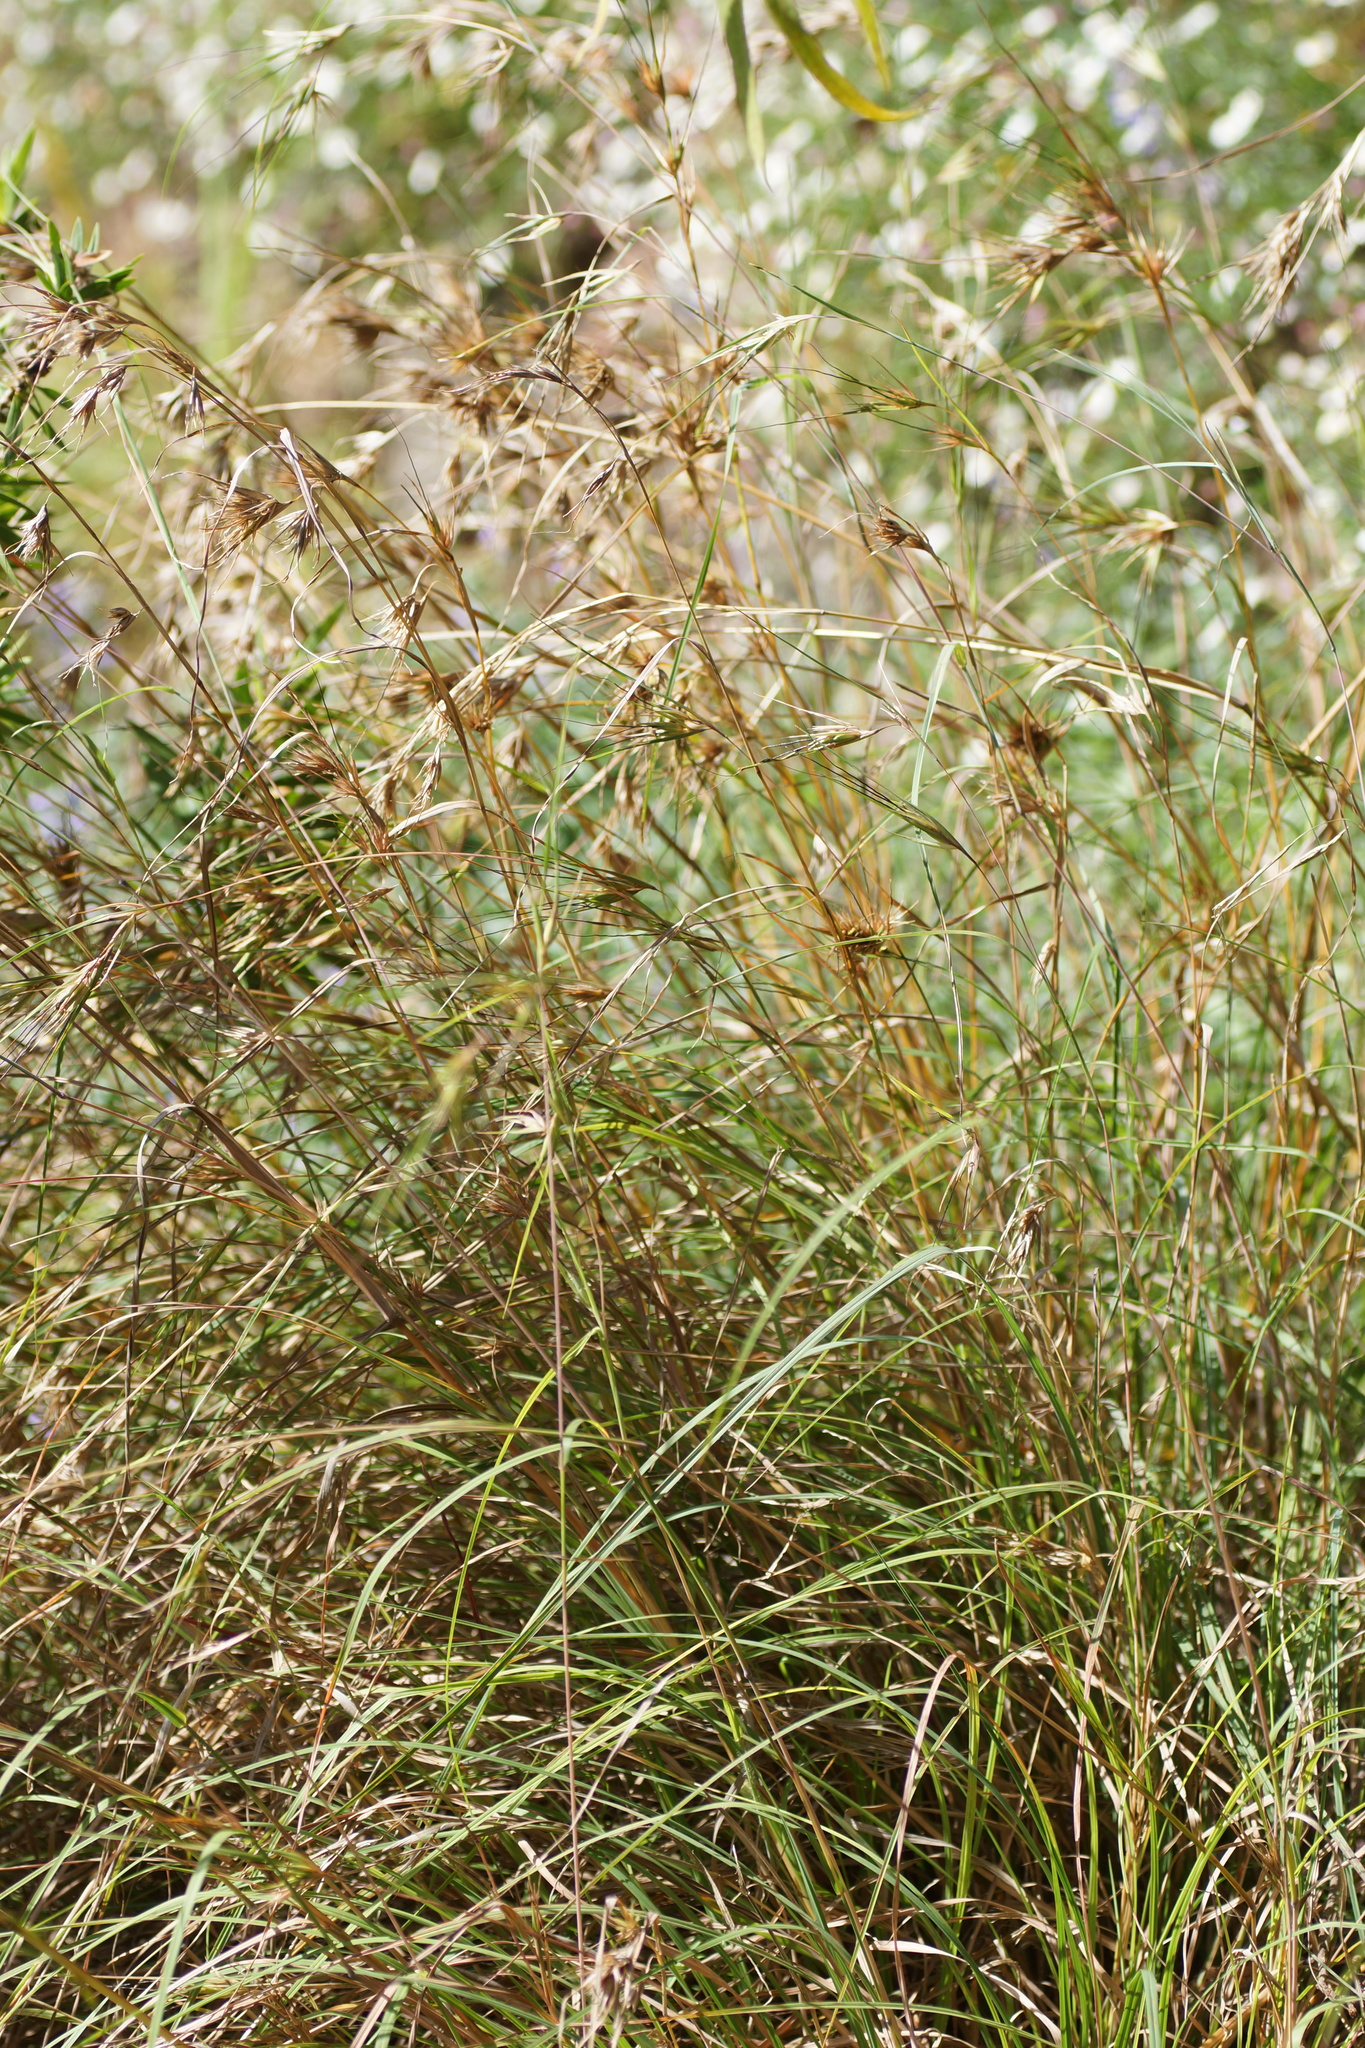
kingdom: Plantae
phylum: Tracheophyta
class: Liliopsida
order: Poales
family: Poaceae
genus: Themeda
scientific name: Themeda triandra
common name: Kangaroo grass
